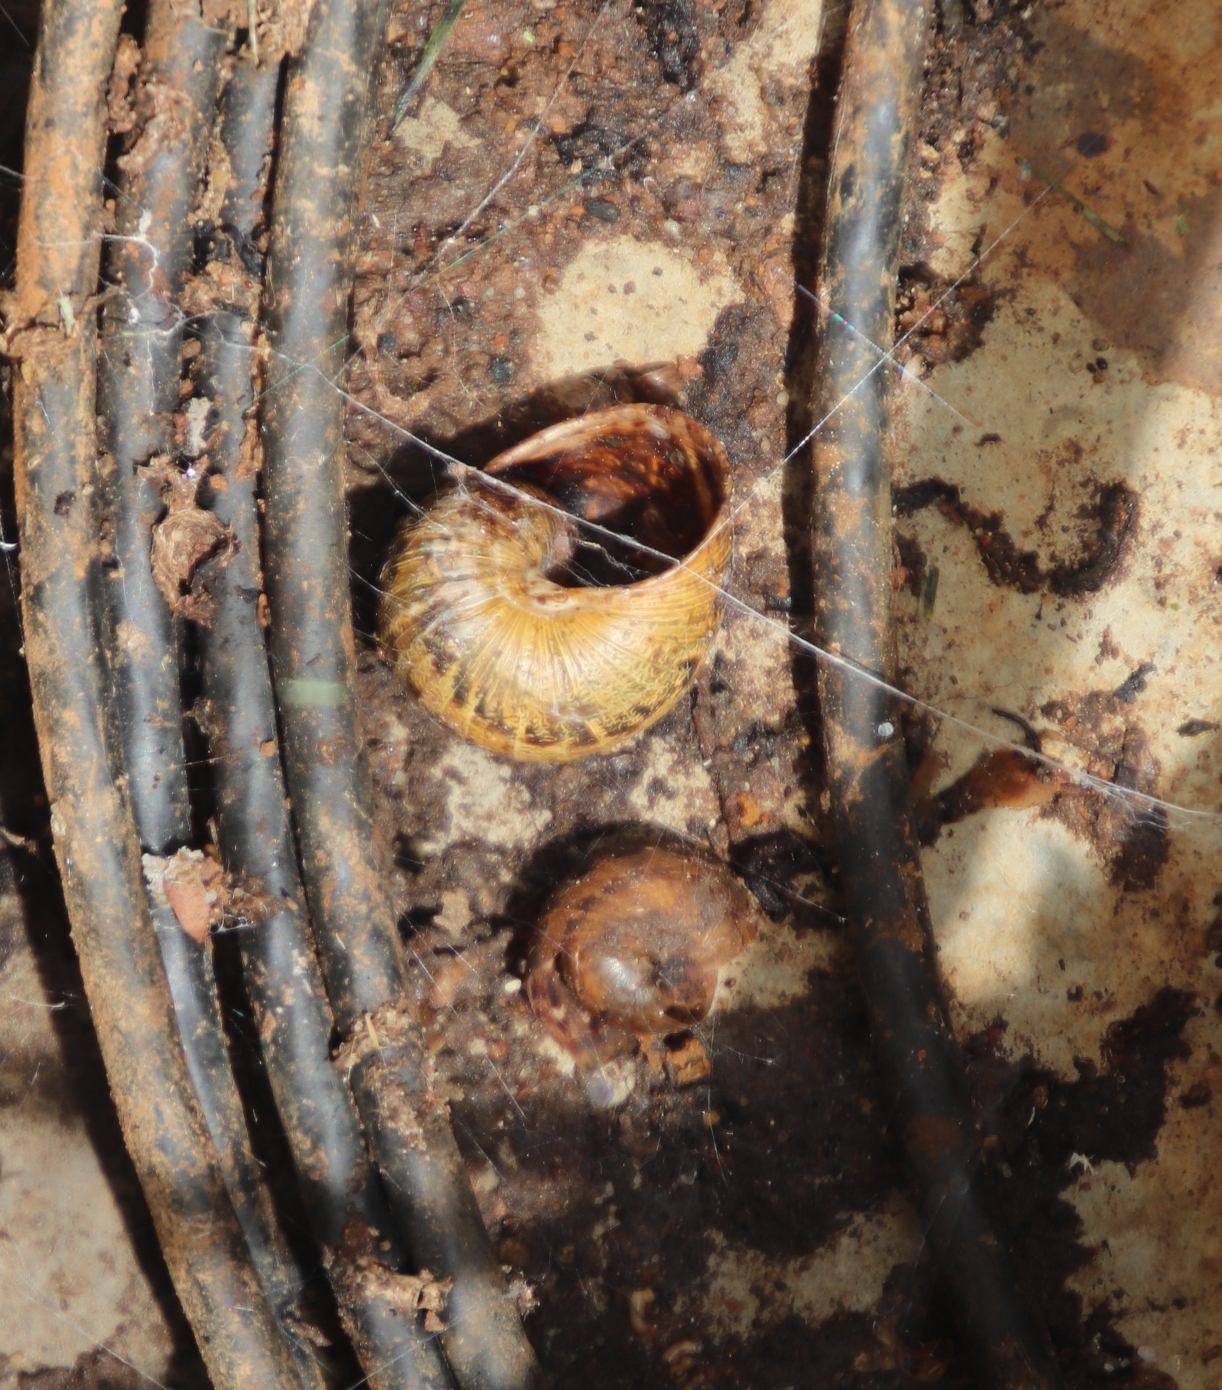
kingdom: Animalia
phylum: Mollusca
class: Gastropoda
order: Stylommatophora
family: Helicidae
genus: Cornu
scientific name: Cornu aspersum
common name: Brown garden snail
